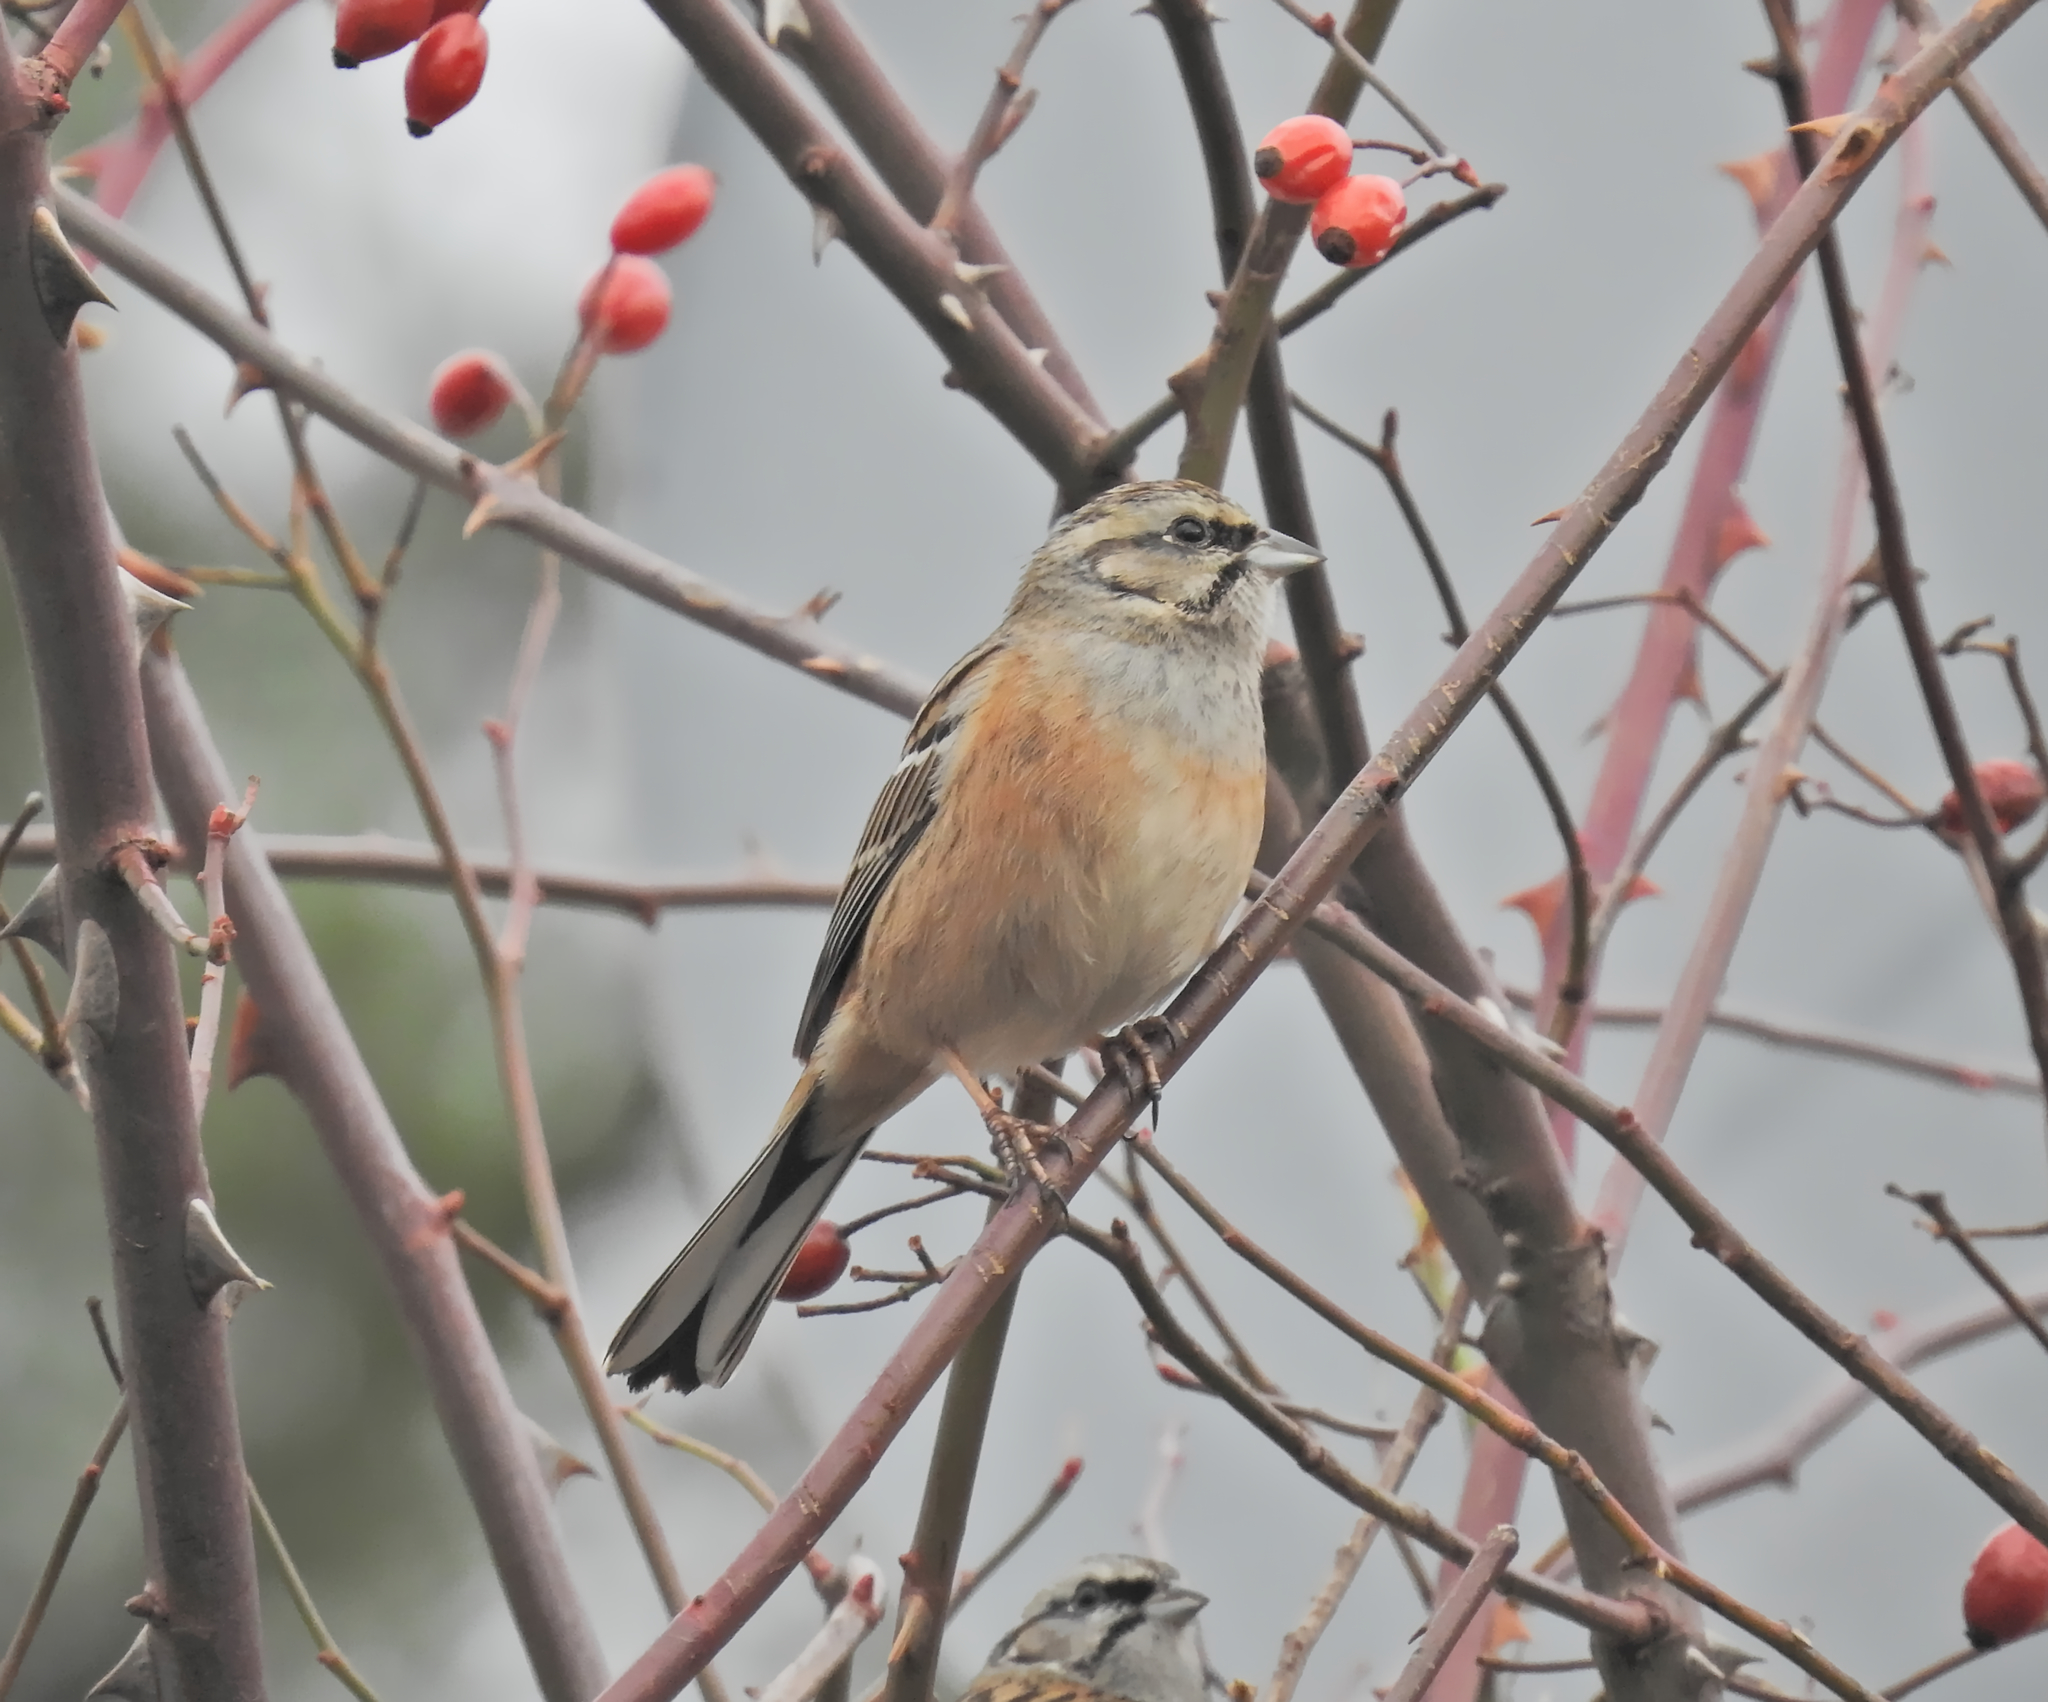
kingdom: Animalia
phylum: Chordata
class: Aves
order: Passeriformes
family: Emberizidae
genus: Emberiza
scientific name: Emberiza cia
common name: Rock bunting
